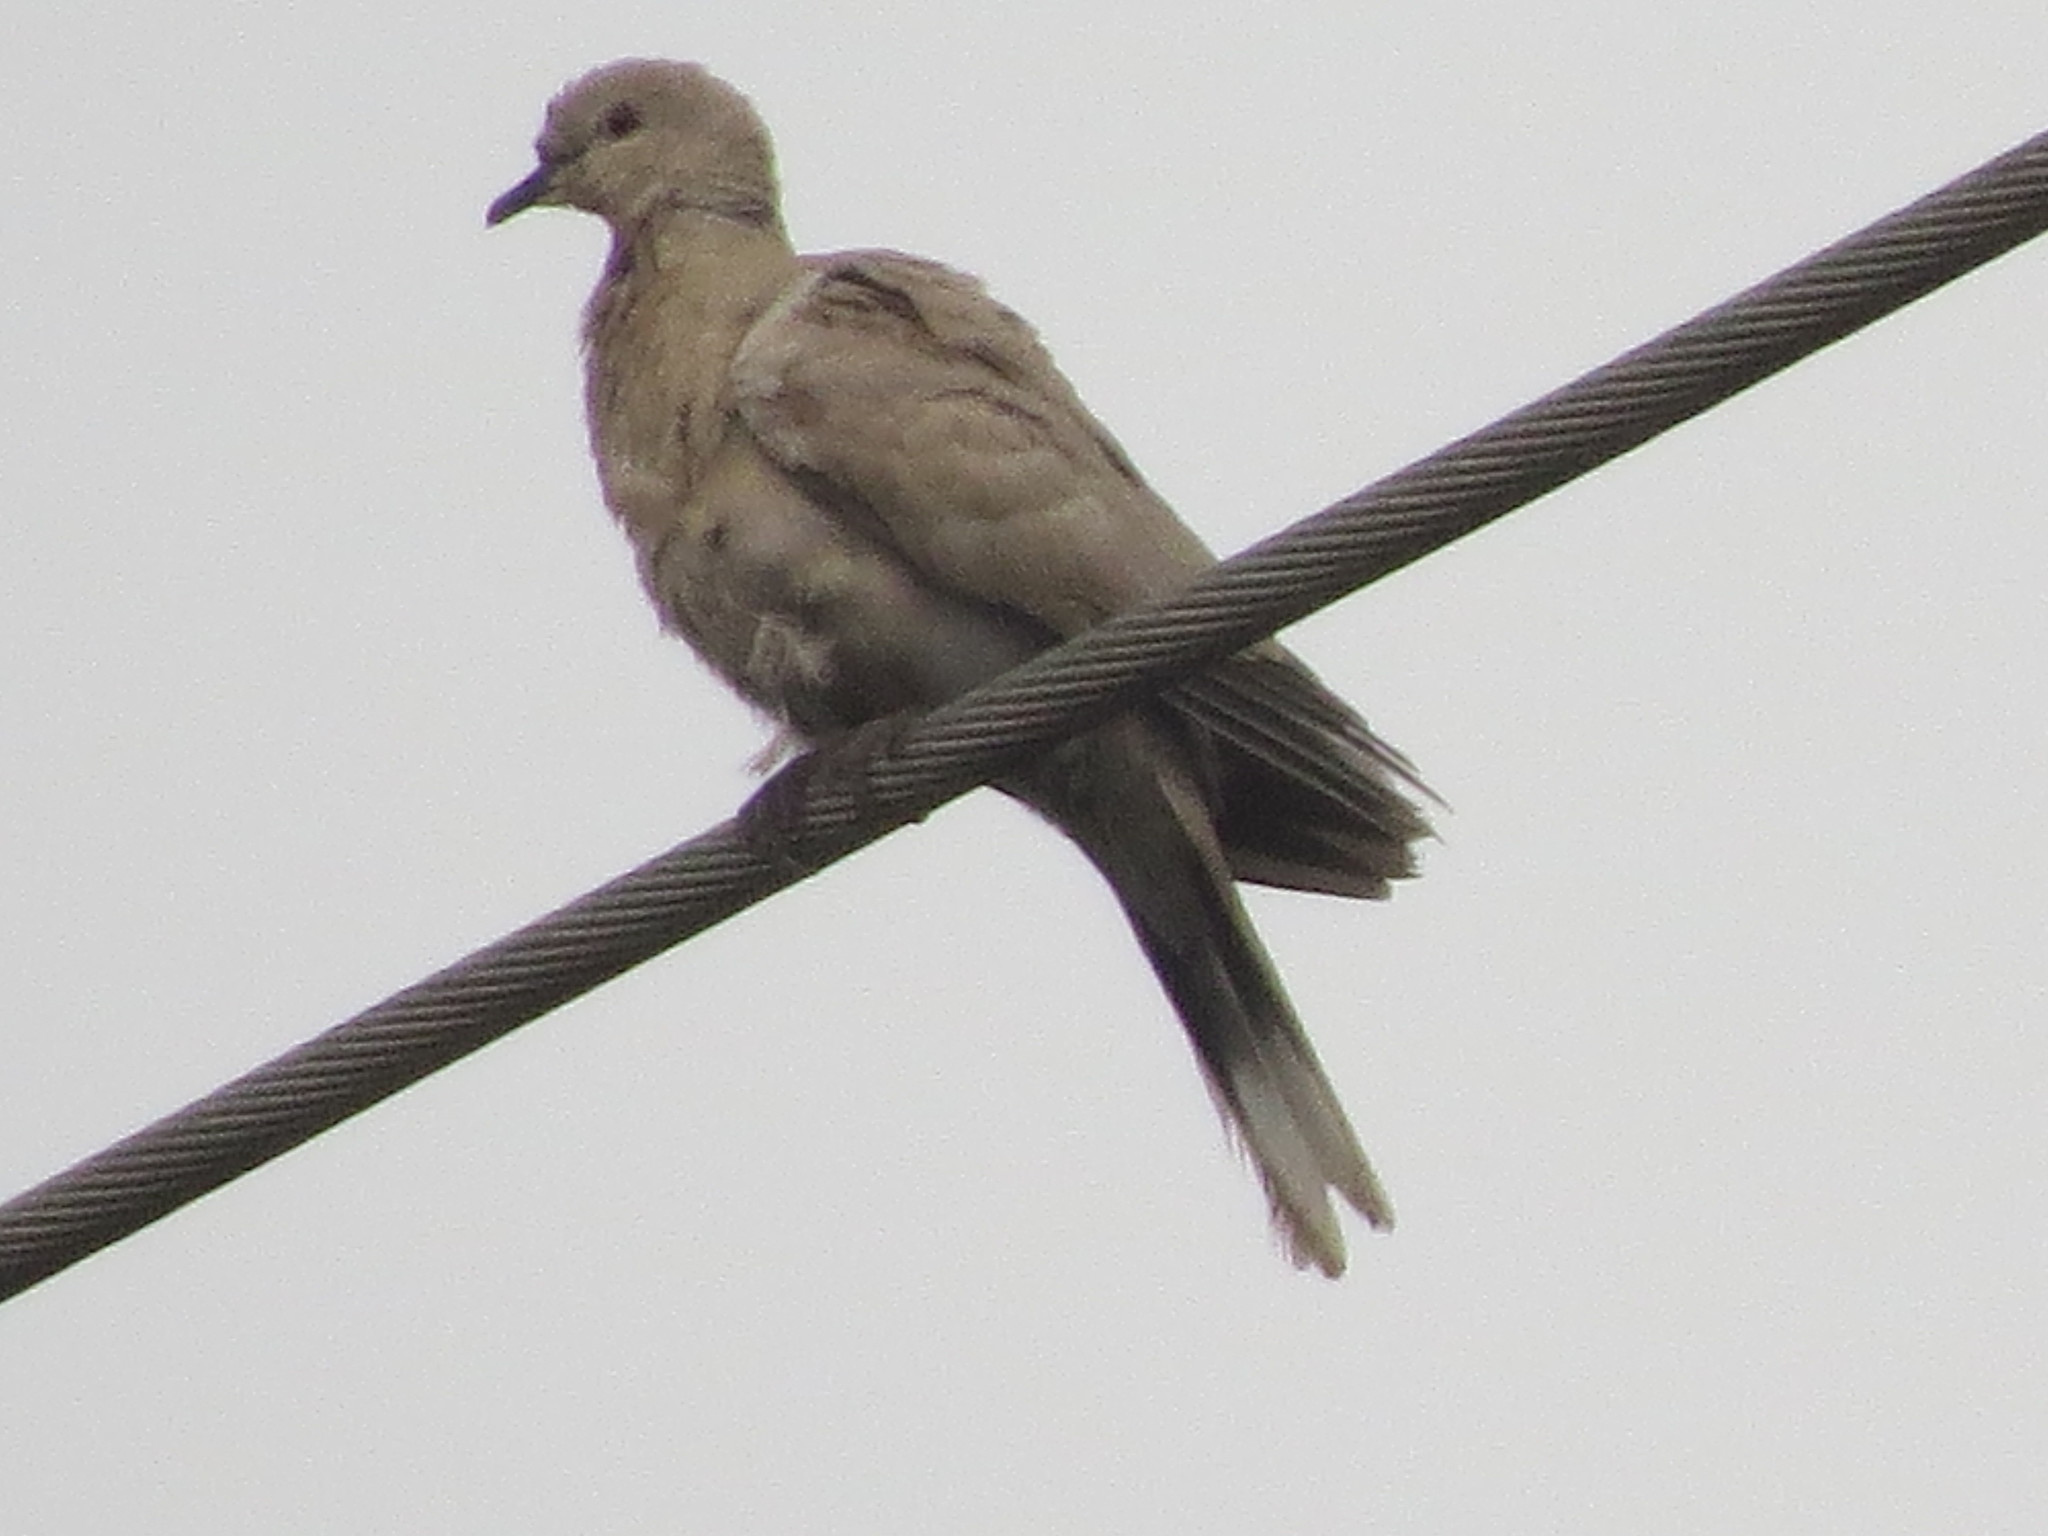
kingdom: Animalia
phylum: Chordata
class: Aves
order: Columbiformes
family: Columbidae
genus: Streptopelia
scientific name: Streptopelia decaocto
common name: Eurasian collared dove
